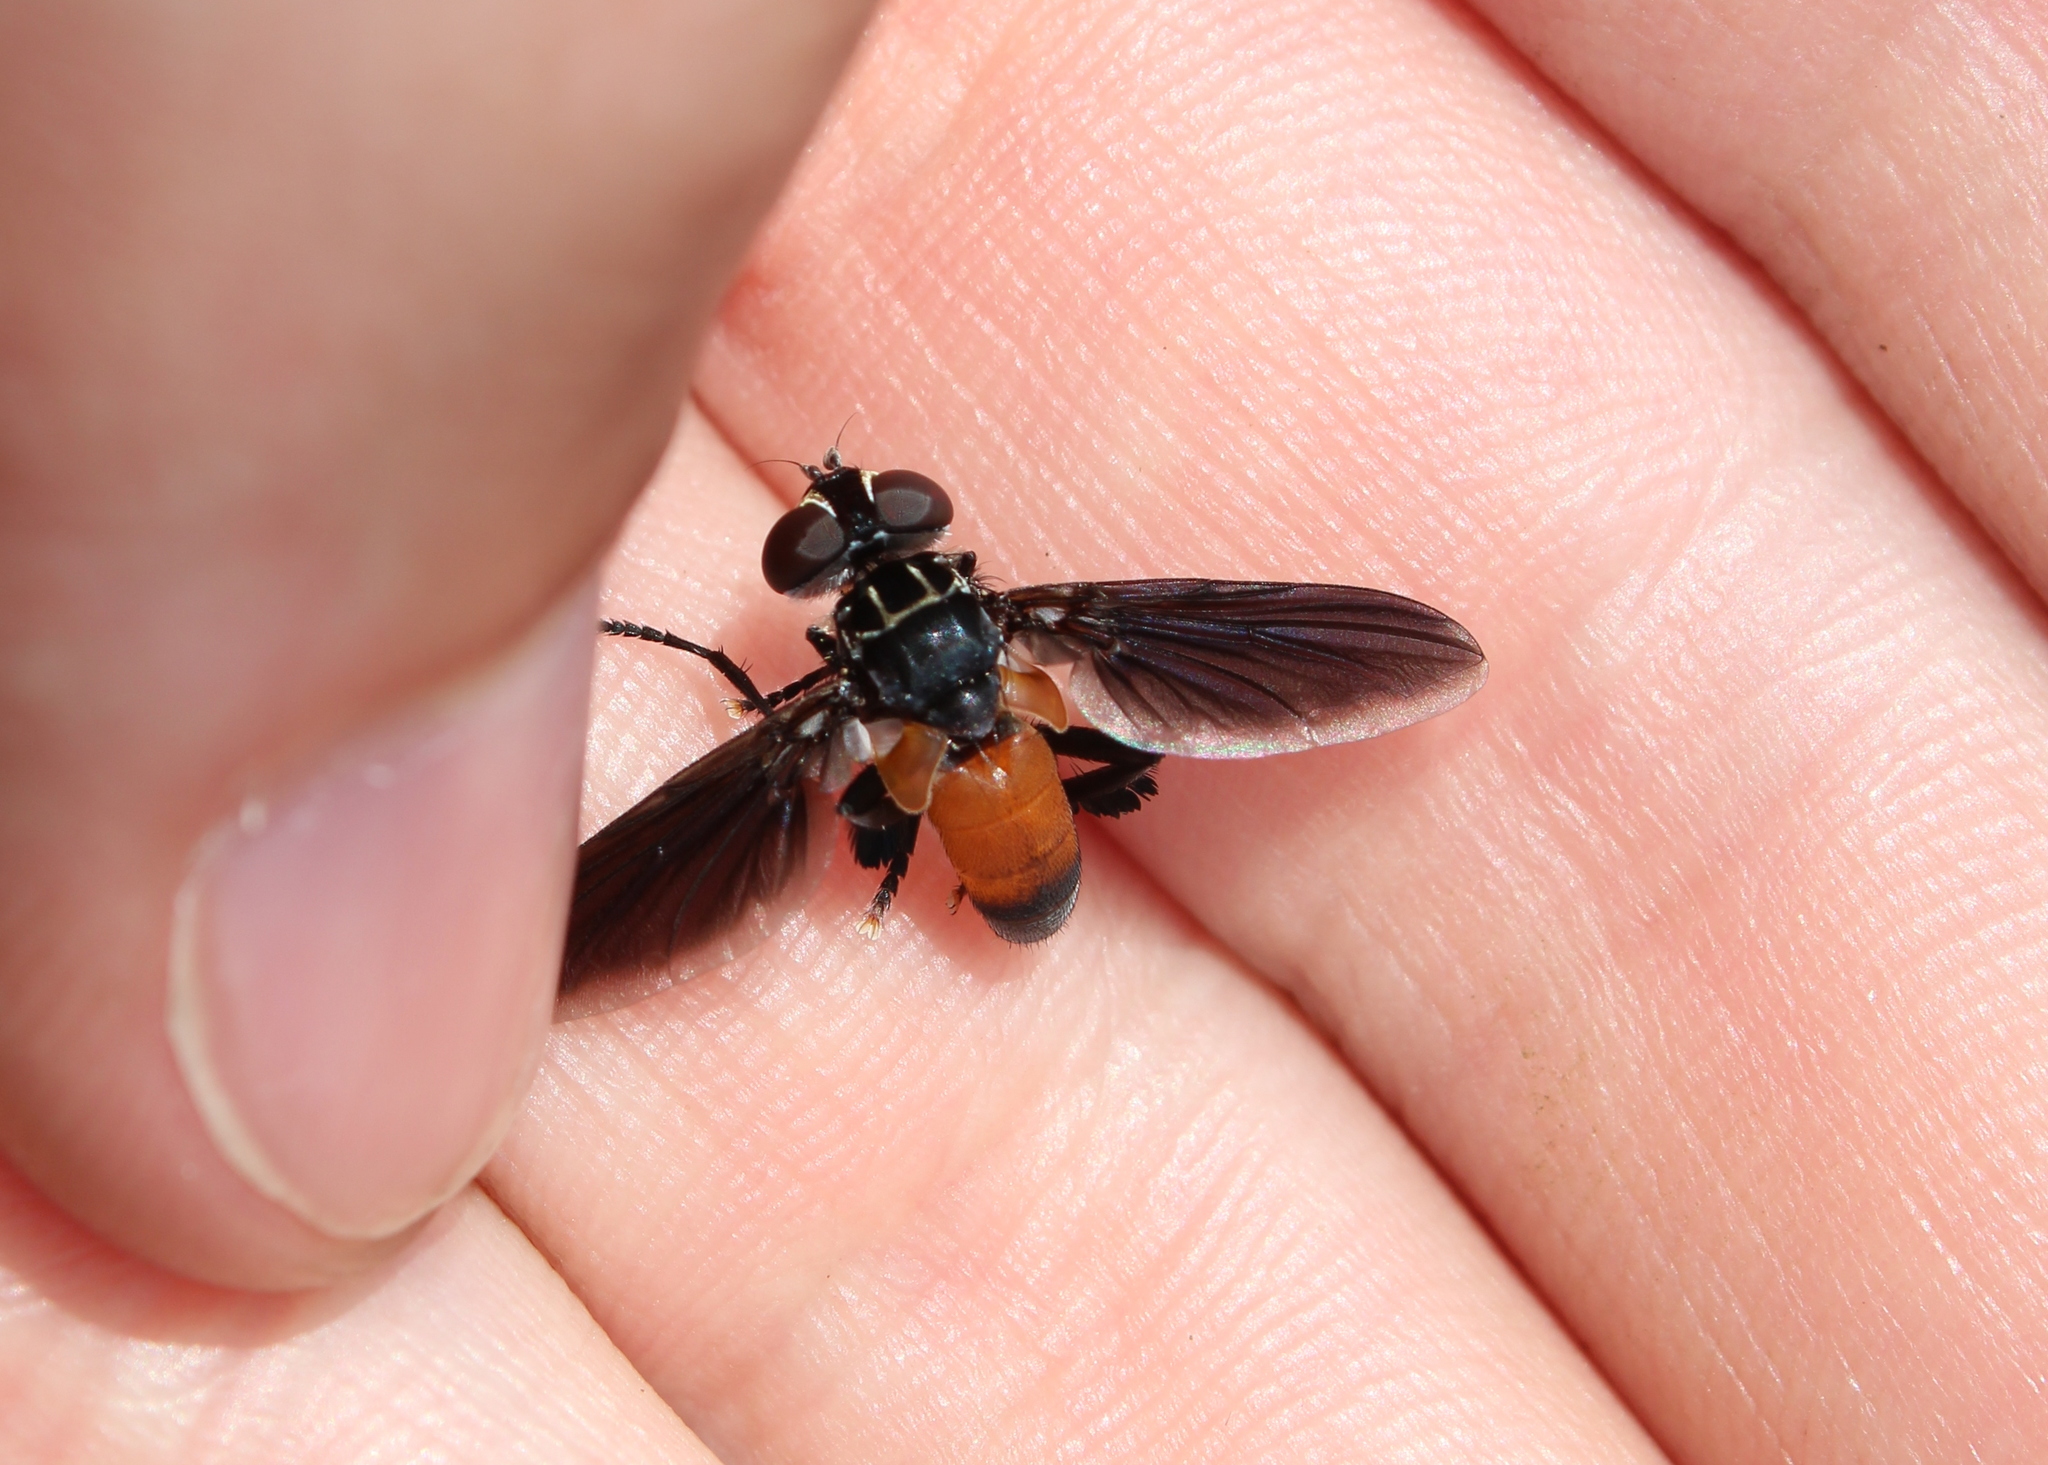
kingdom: Animalia
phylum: Arthropoda
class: Insecta
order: Diptera
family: Tachinidae
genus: Trichopoda
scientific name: Trichopoda pennipes
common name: Tachinid fly
